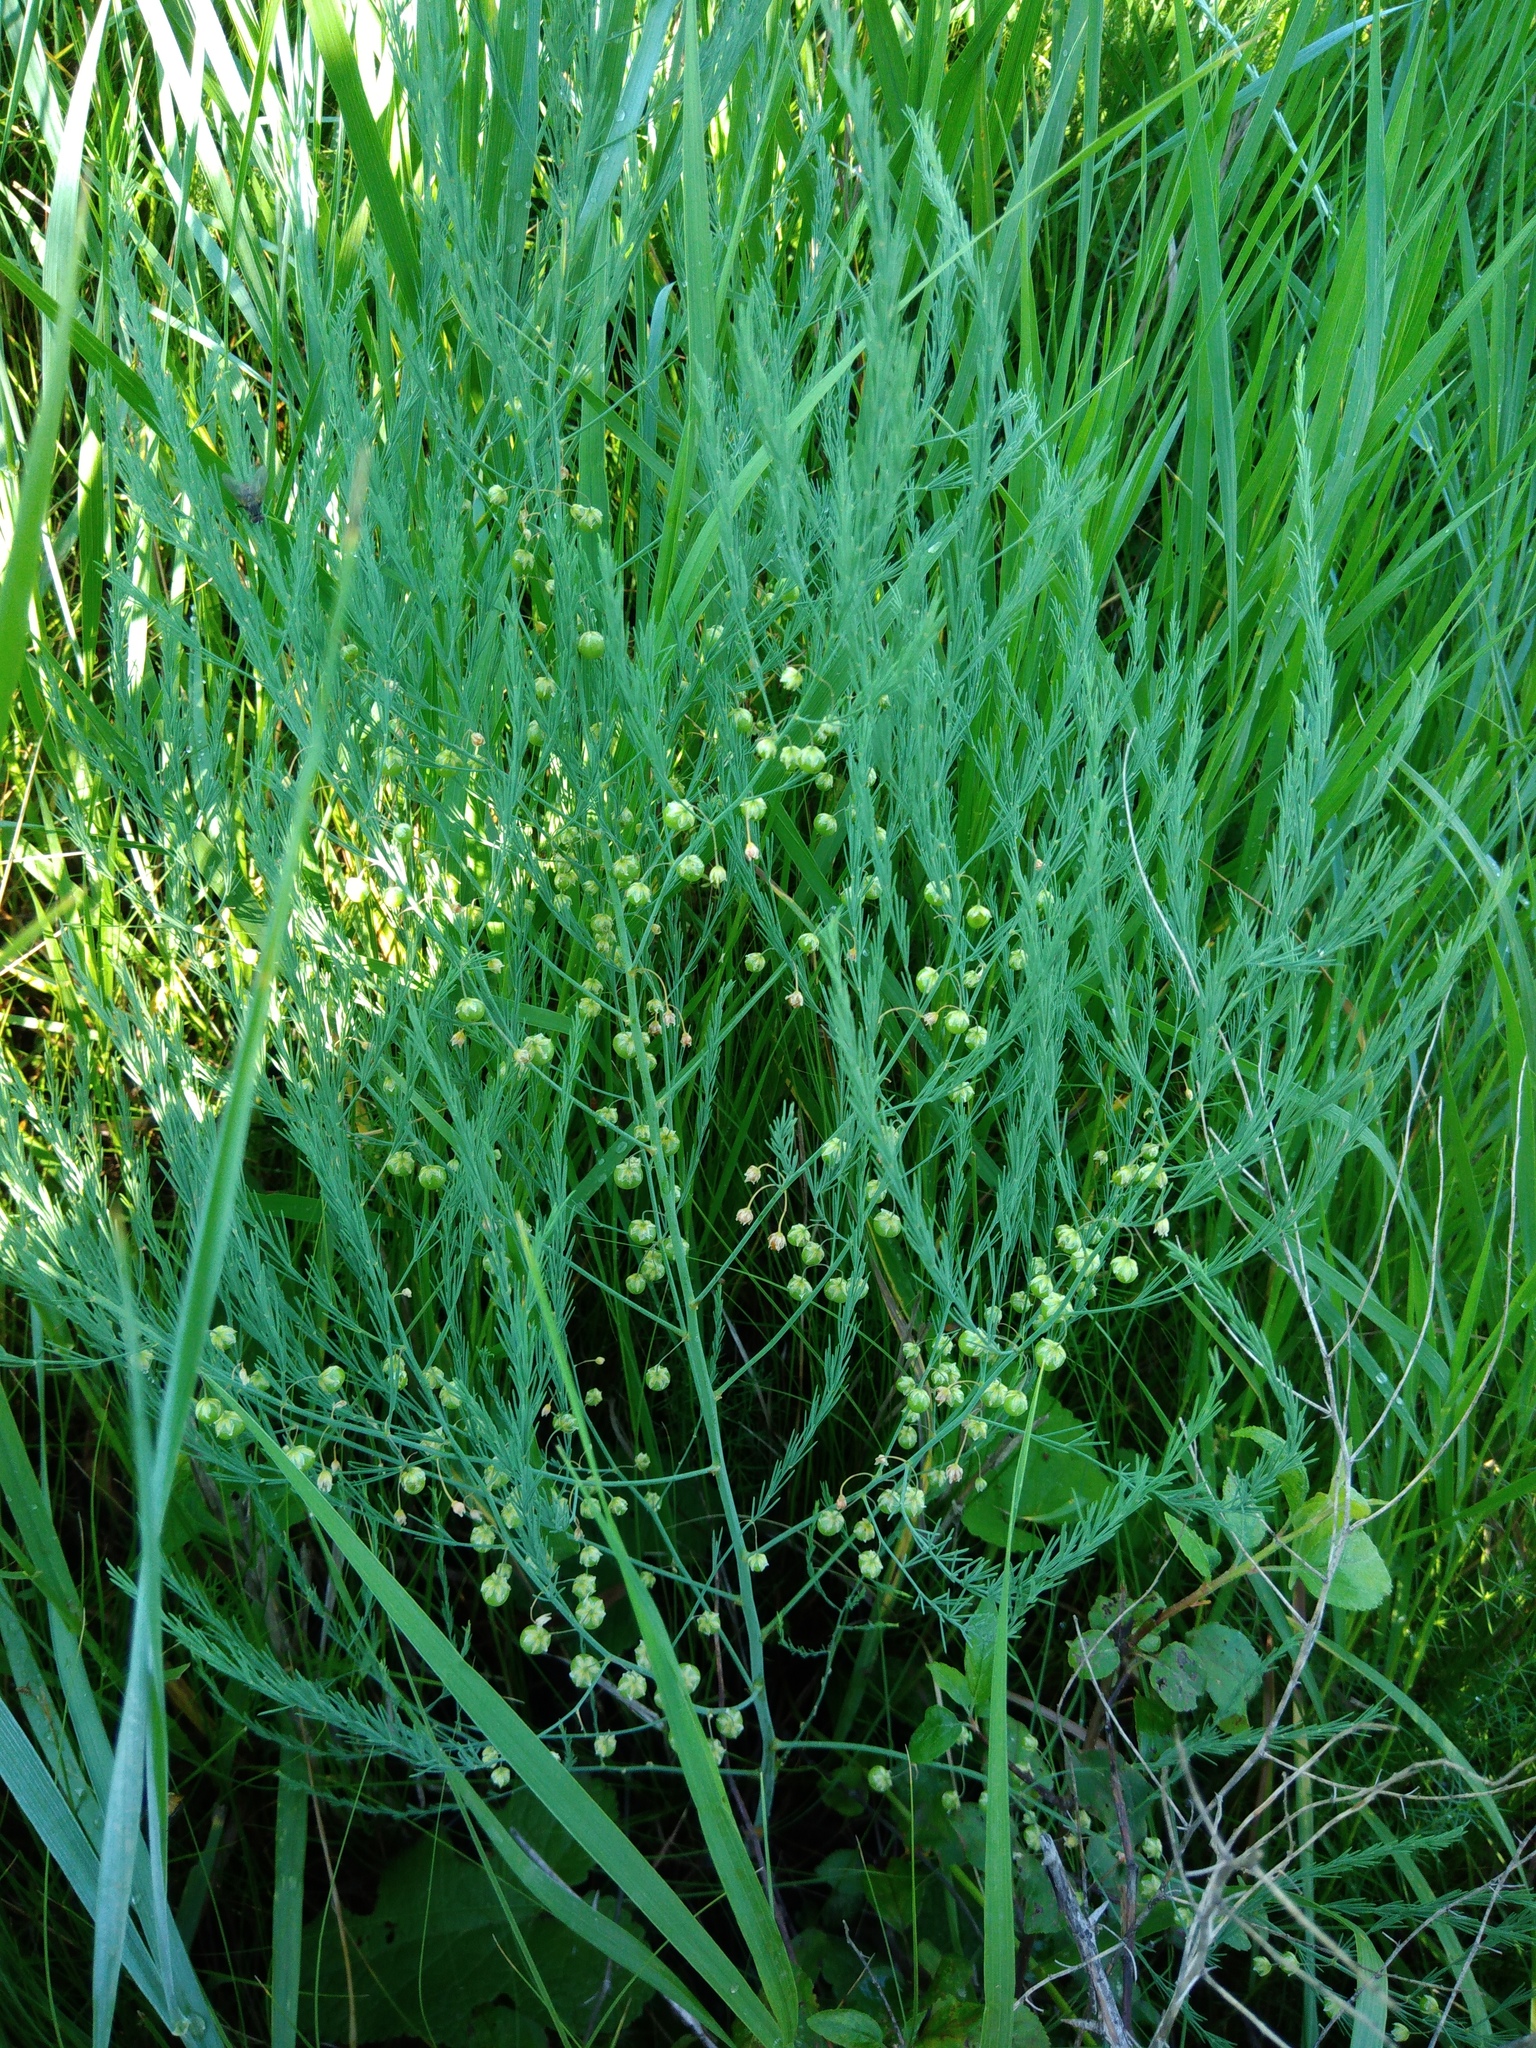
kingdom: Plantae
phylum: Tracheophyta
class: Liliopsida
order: Asparagales
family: Asparagaceae
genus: Asparagus
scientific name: Asparagus officinalis
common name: Garden asparagus
